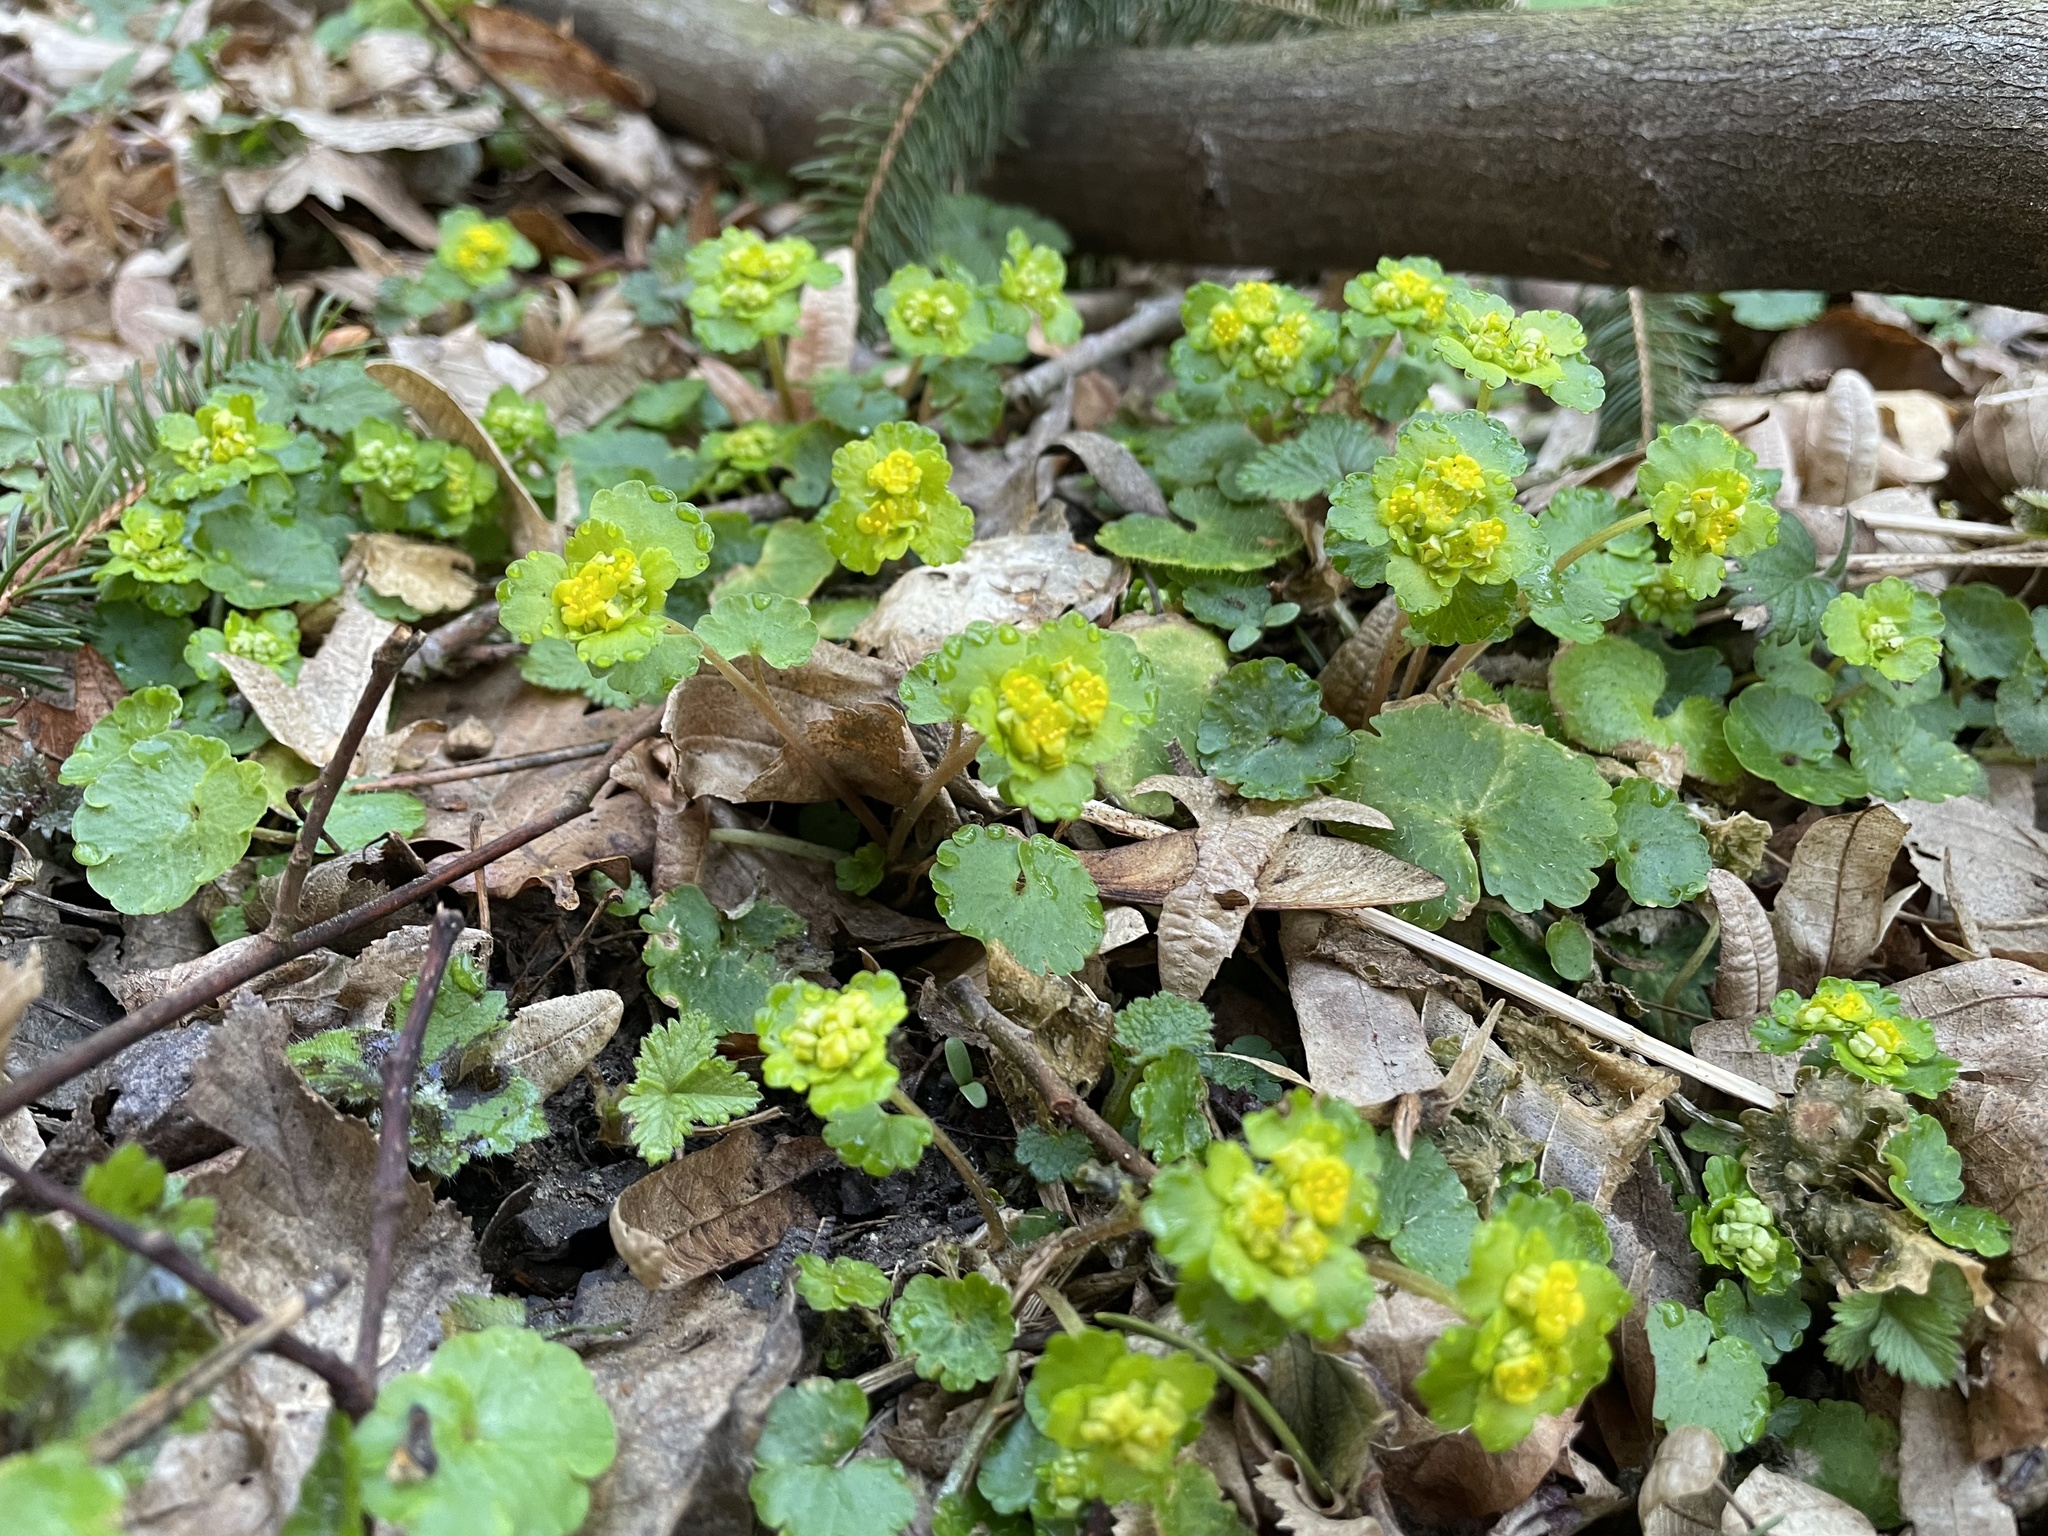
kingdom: Plantae
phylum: Tracheophyta
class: Magnoliopsida
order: Saxifragales
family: Saxifragaceae
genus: Chrysosplenium
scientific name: Chrysosplenium alternifolium
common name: Alternate-leaved golden-saxifrage
